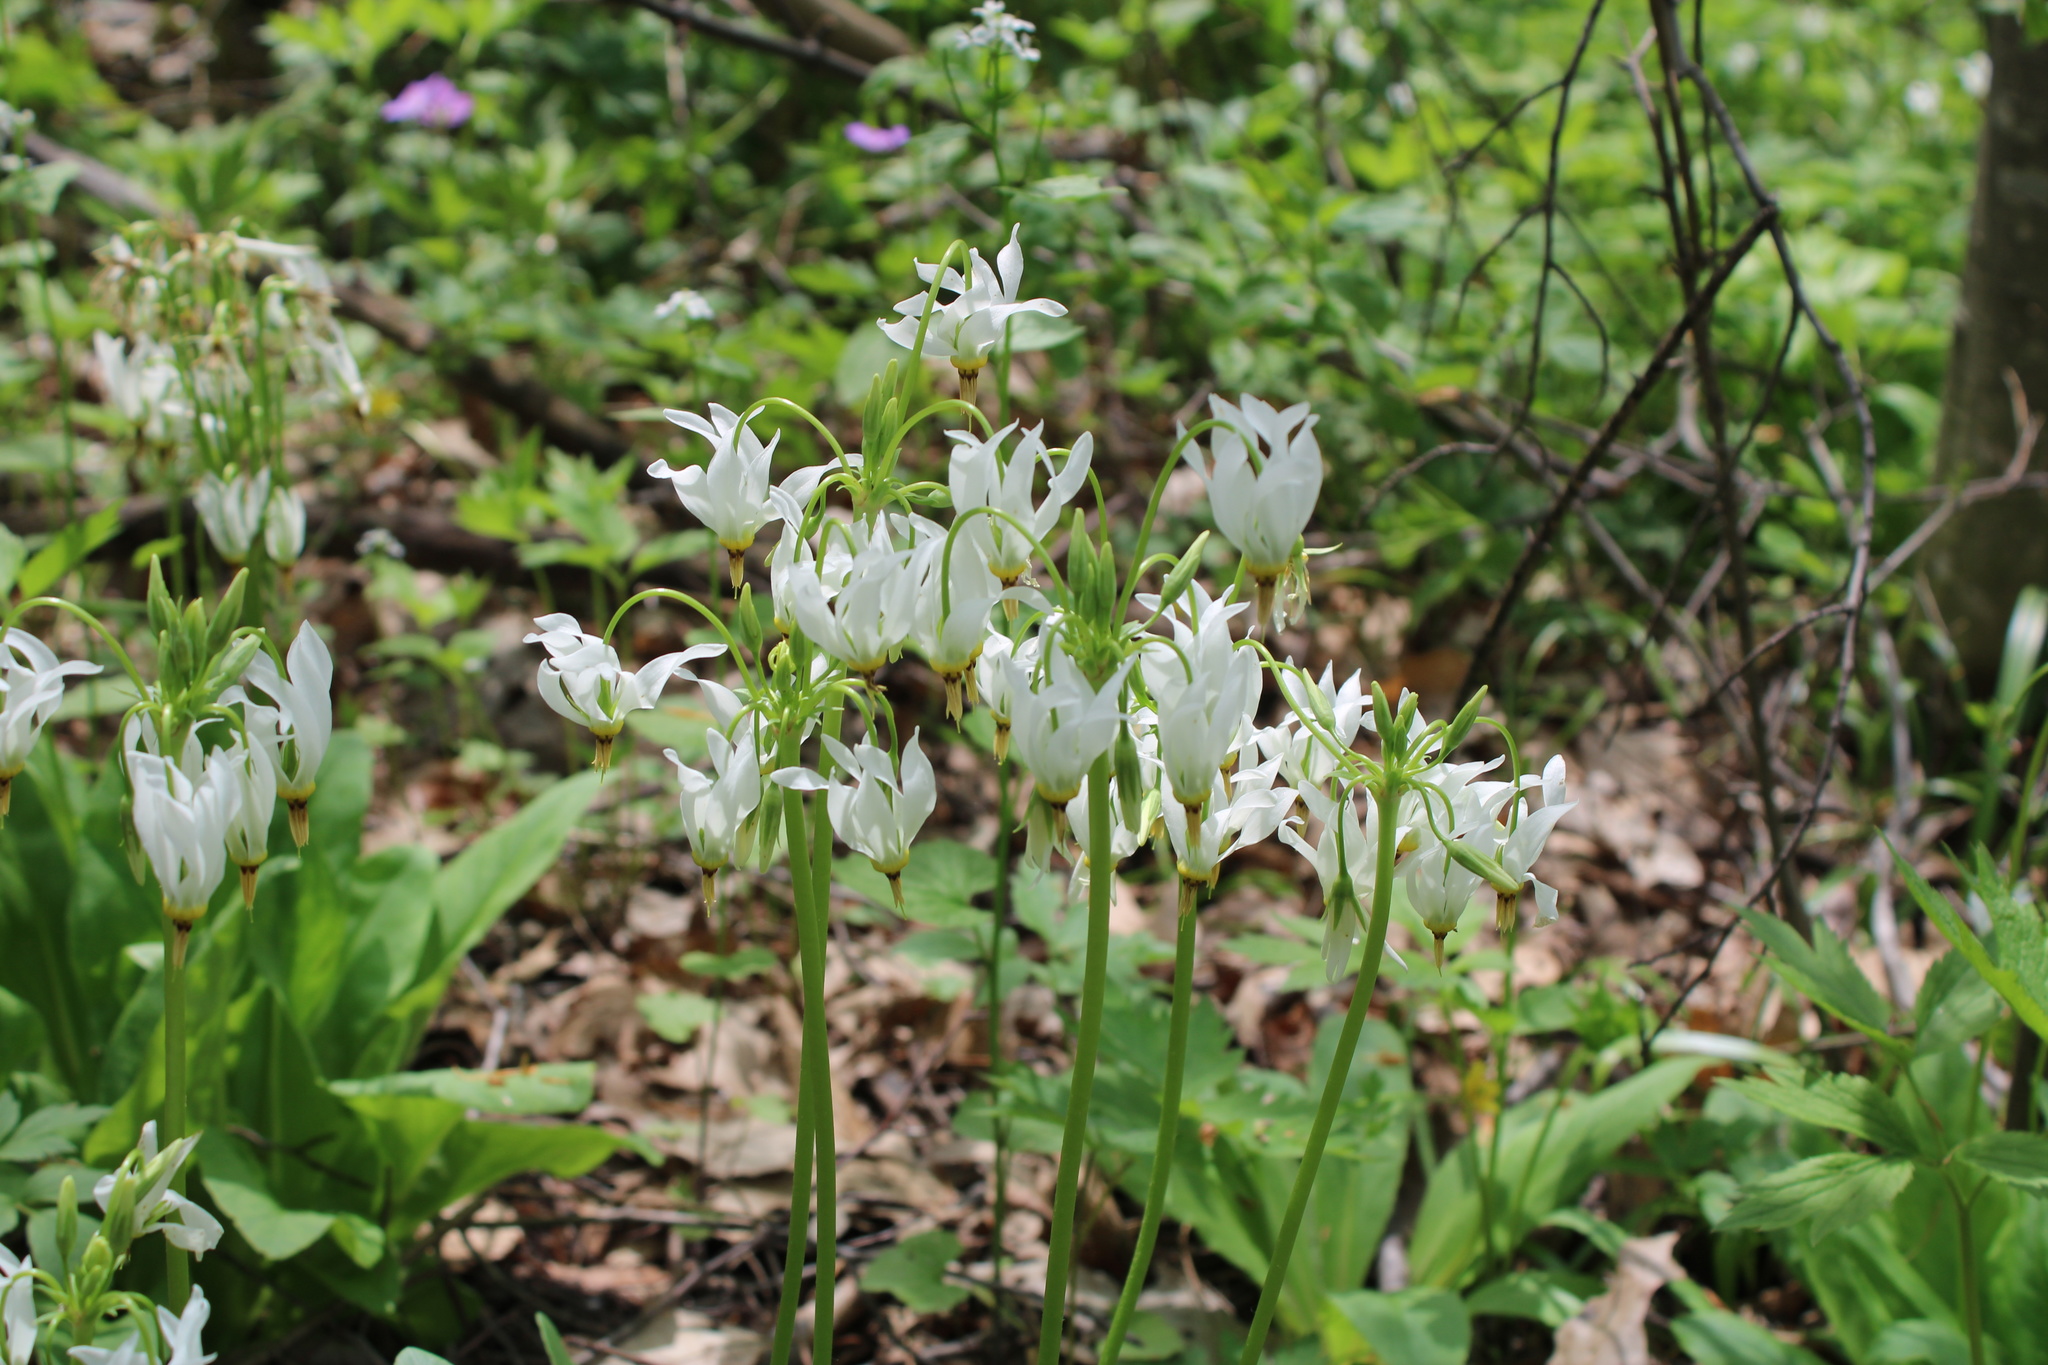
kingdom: Plantae
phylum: Tracheophyta
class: Magnoliopsida
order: Ericales
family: Primulaceae
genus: Dodecatheon
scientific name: Dodecatheon meadia
